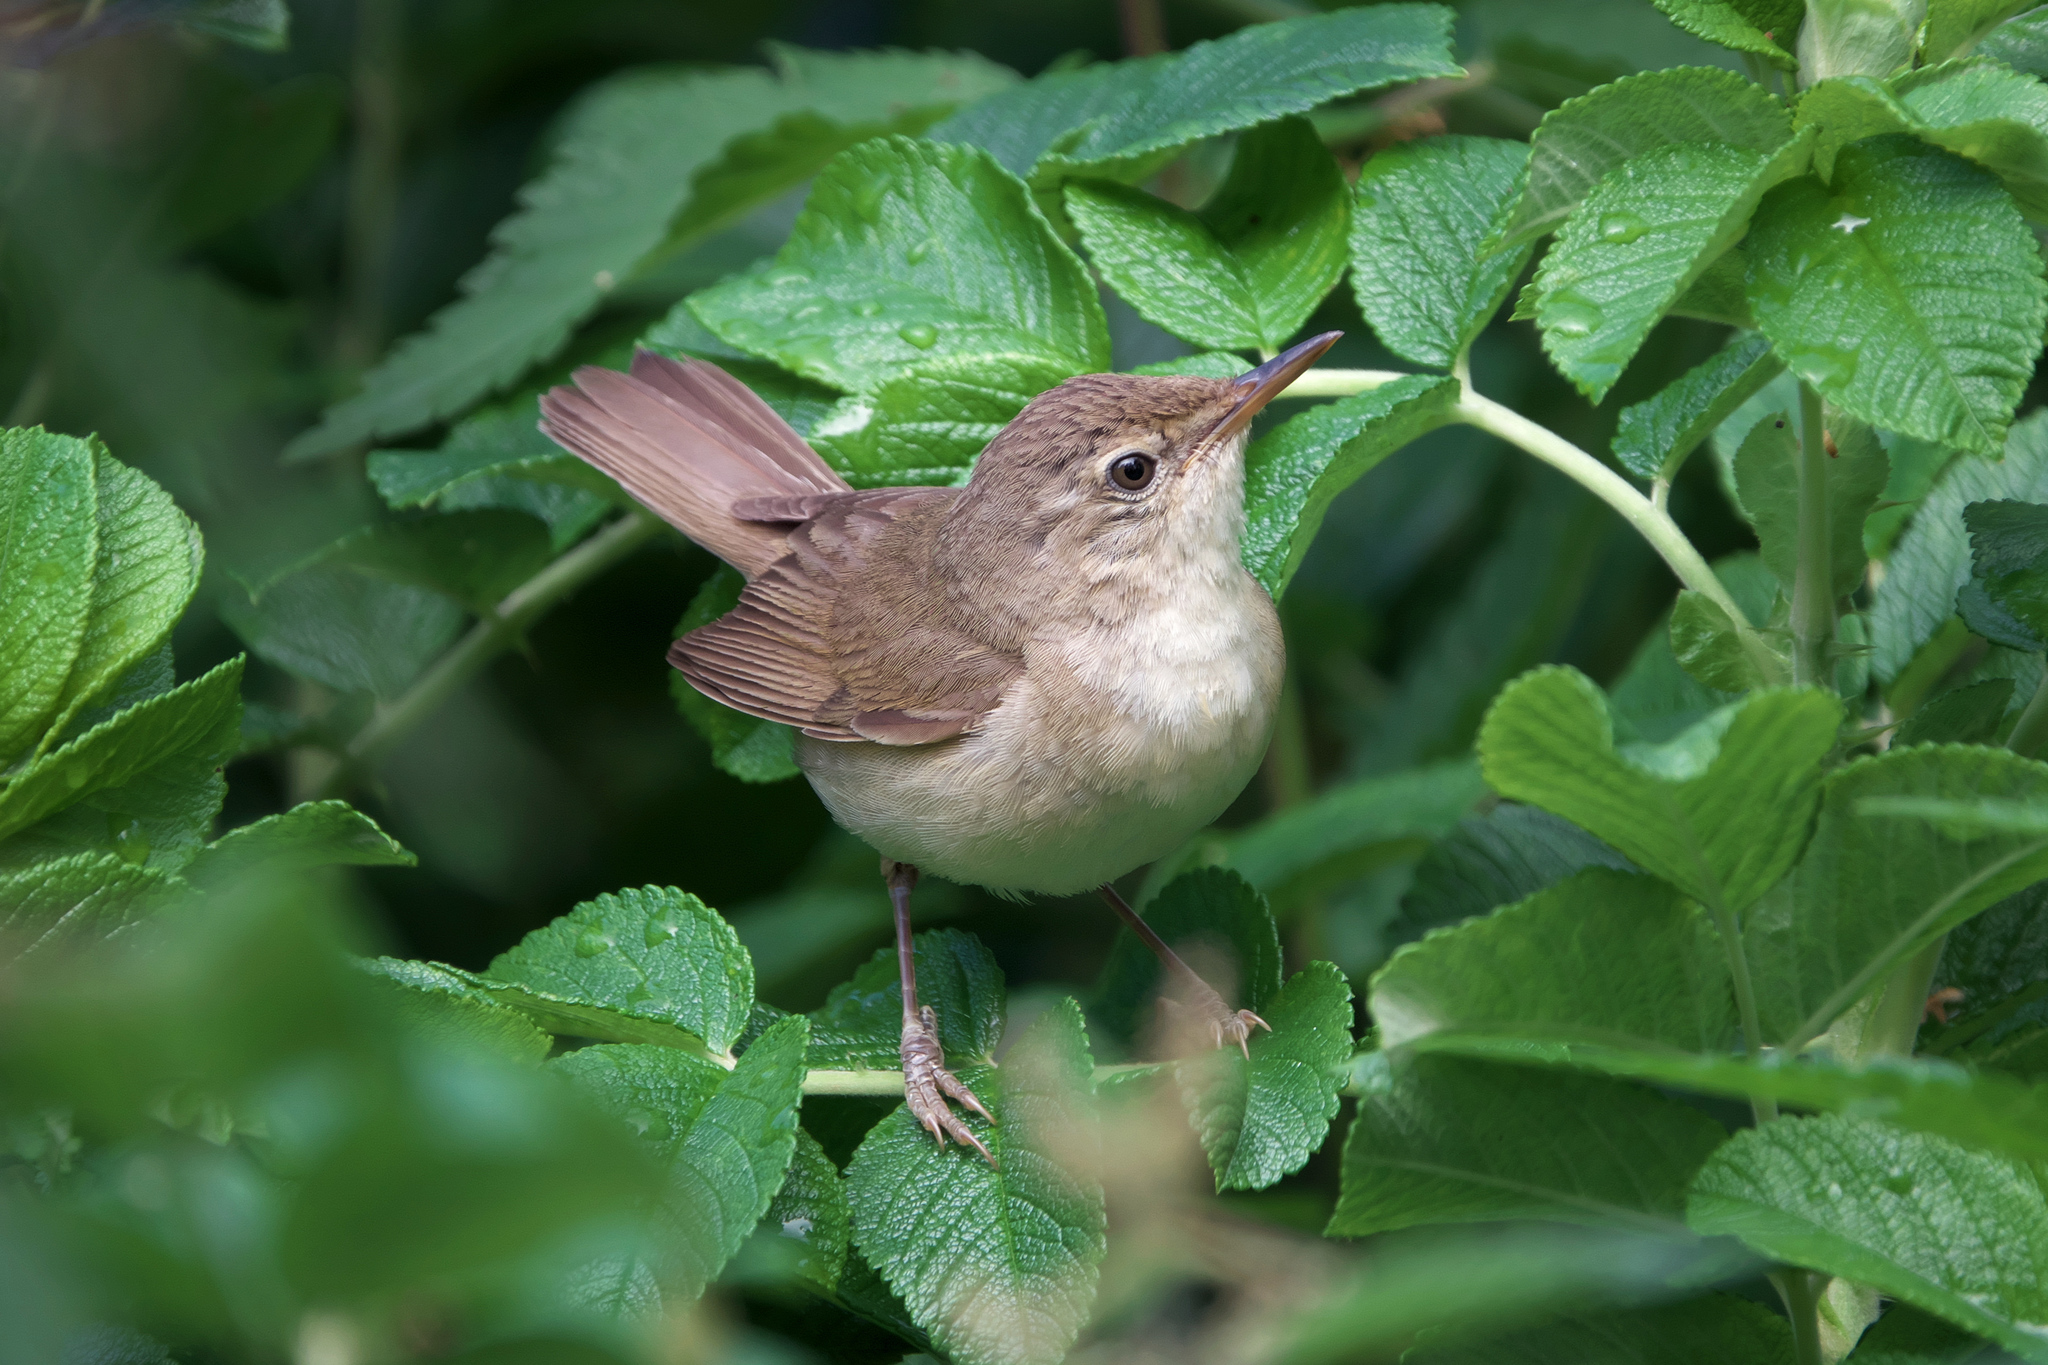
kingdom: Animalia
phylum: Chordata
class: Aves
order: Passeriformes
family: Acrocephalidae
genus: Acrocephalus
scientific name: Acrocephalus dumetorum
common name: Blyth's reed warbler
